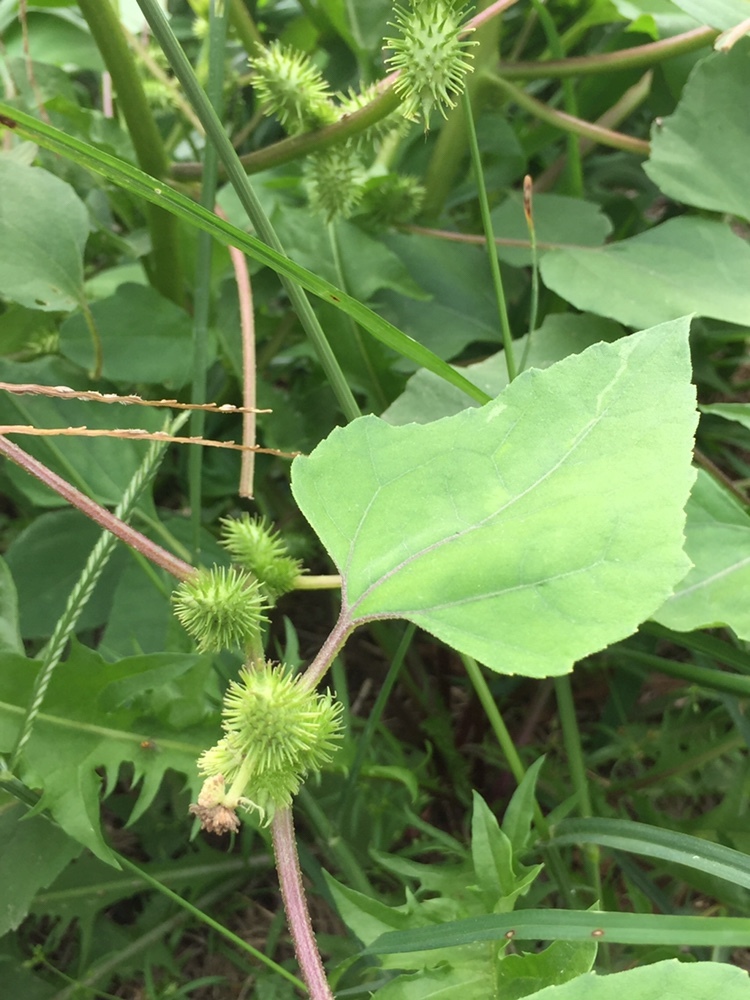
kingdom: Plantae
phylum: Tracheophyta
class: Magnoliopsida
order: Asterales
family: Asteraceae
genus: Xanthium
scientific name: Xanthium strumarium
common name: Rough cocklebur
